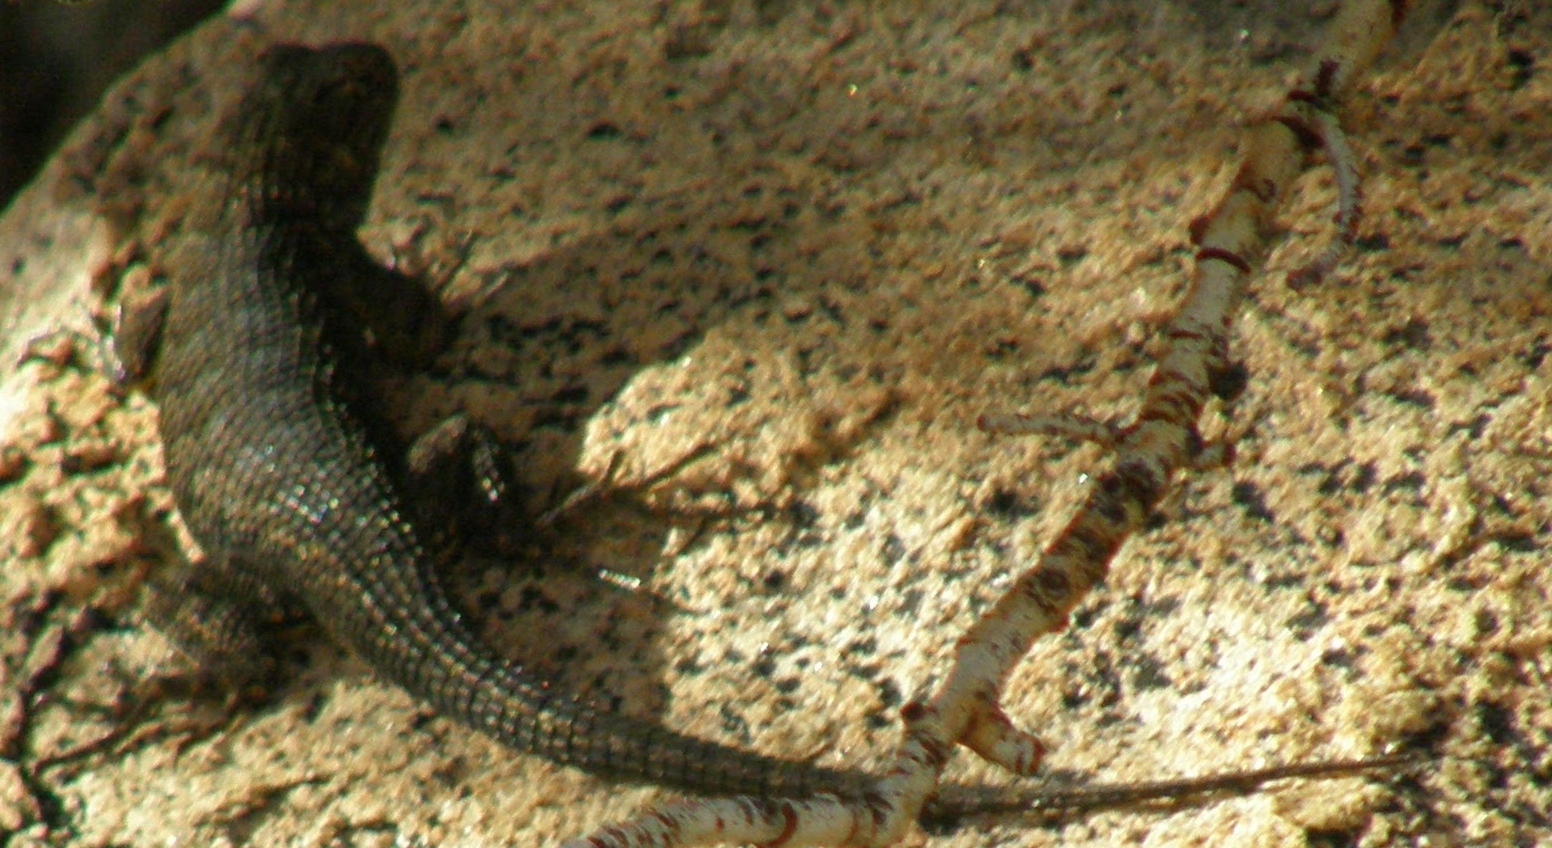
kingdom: Animalia
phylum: Chordata
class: Squamata
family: Phrynosomatidae
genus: Sceloporus
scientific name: Sceloporus occidentalis
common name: Western fence lizard
